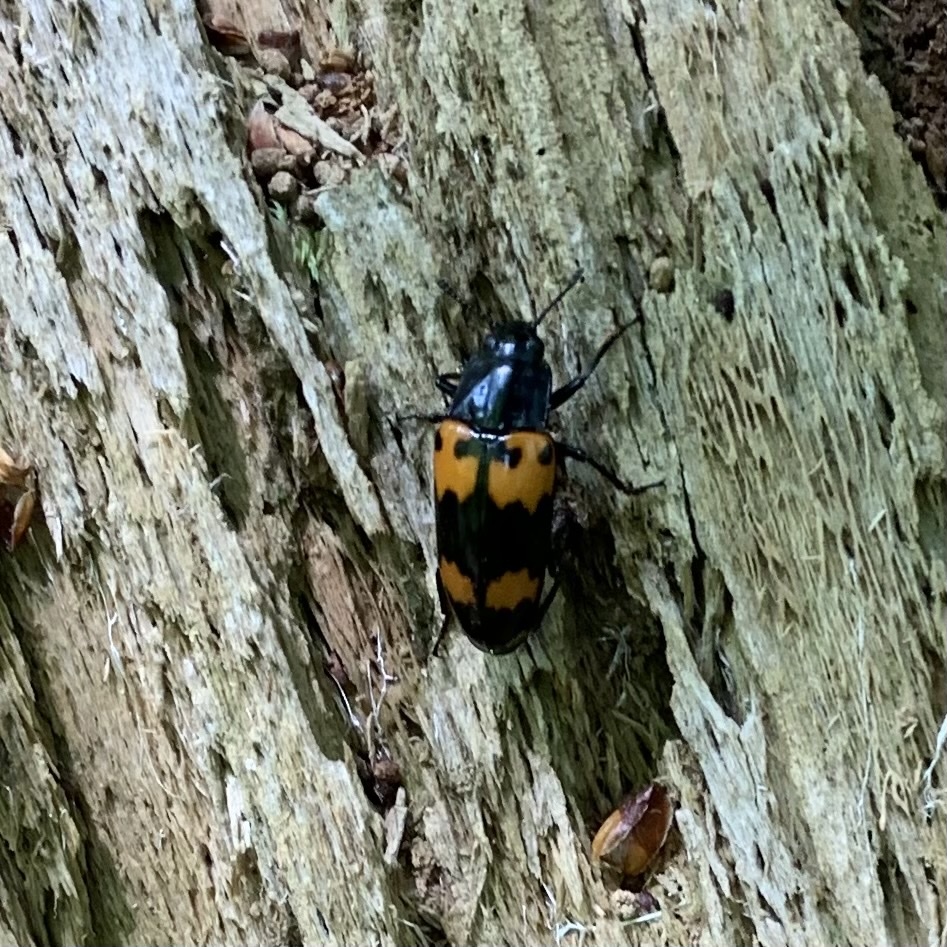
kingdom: Animalia
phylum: Arthropoda
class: Insecta
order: Coleoptera
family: Erotylidae
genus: Megalodacne
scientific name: Megalodacne heros
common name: Pleasing fungus beetle
